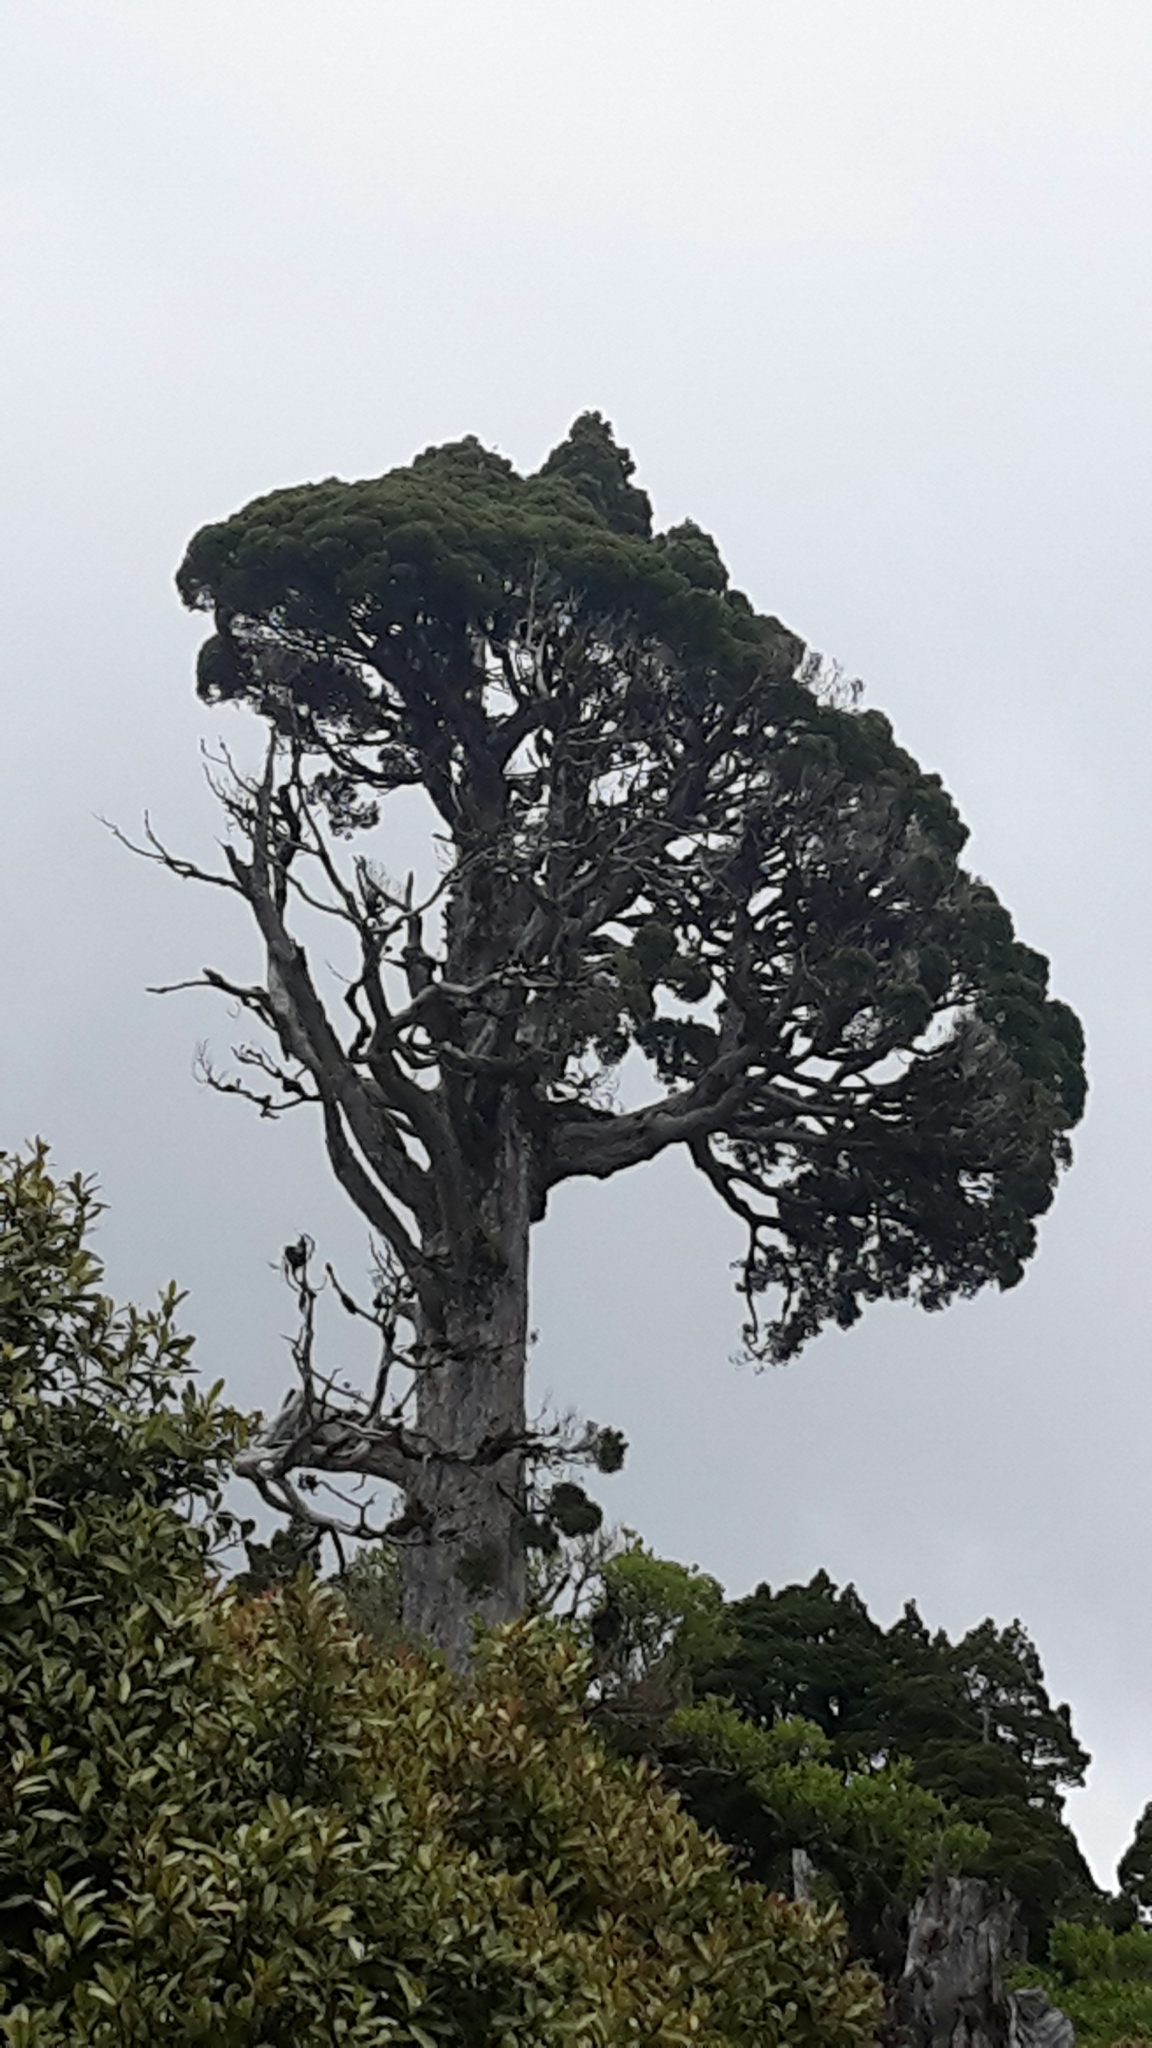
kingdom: Plantae
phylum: Tracheophyta
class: Pinopsida
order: Pinales
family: Cupressaceae
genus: Libocedrus
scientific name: Libocedrus bidwillii
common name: Cedar
